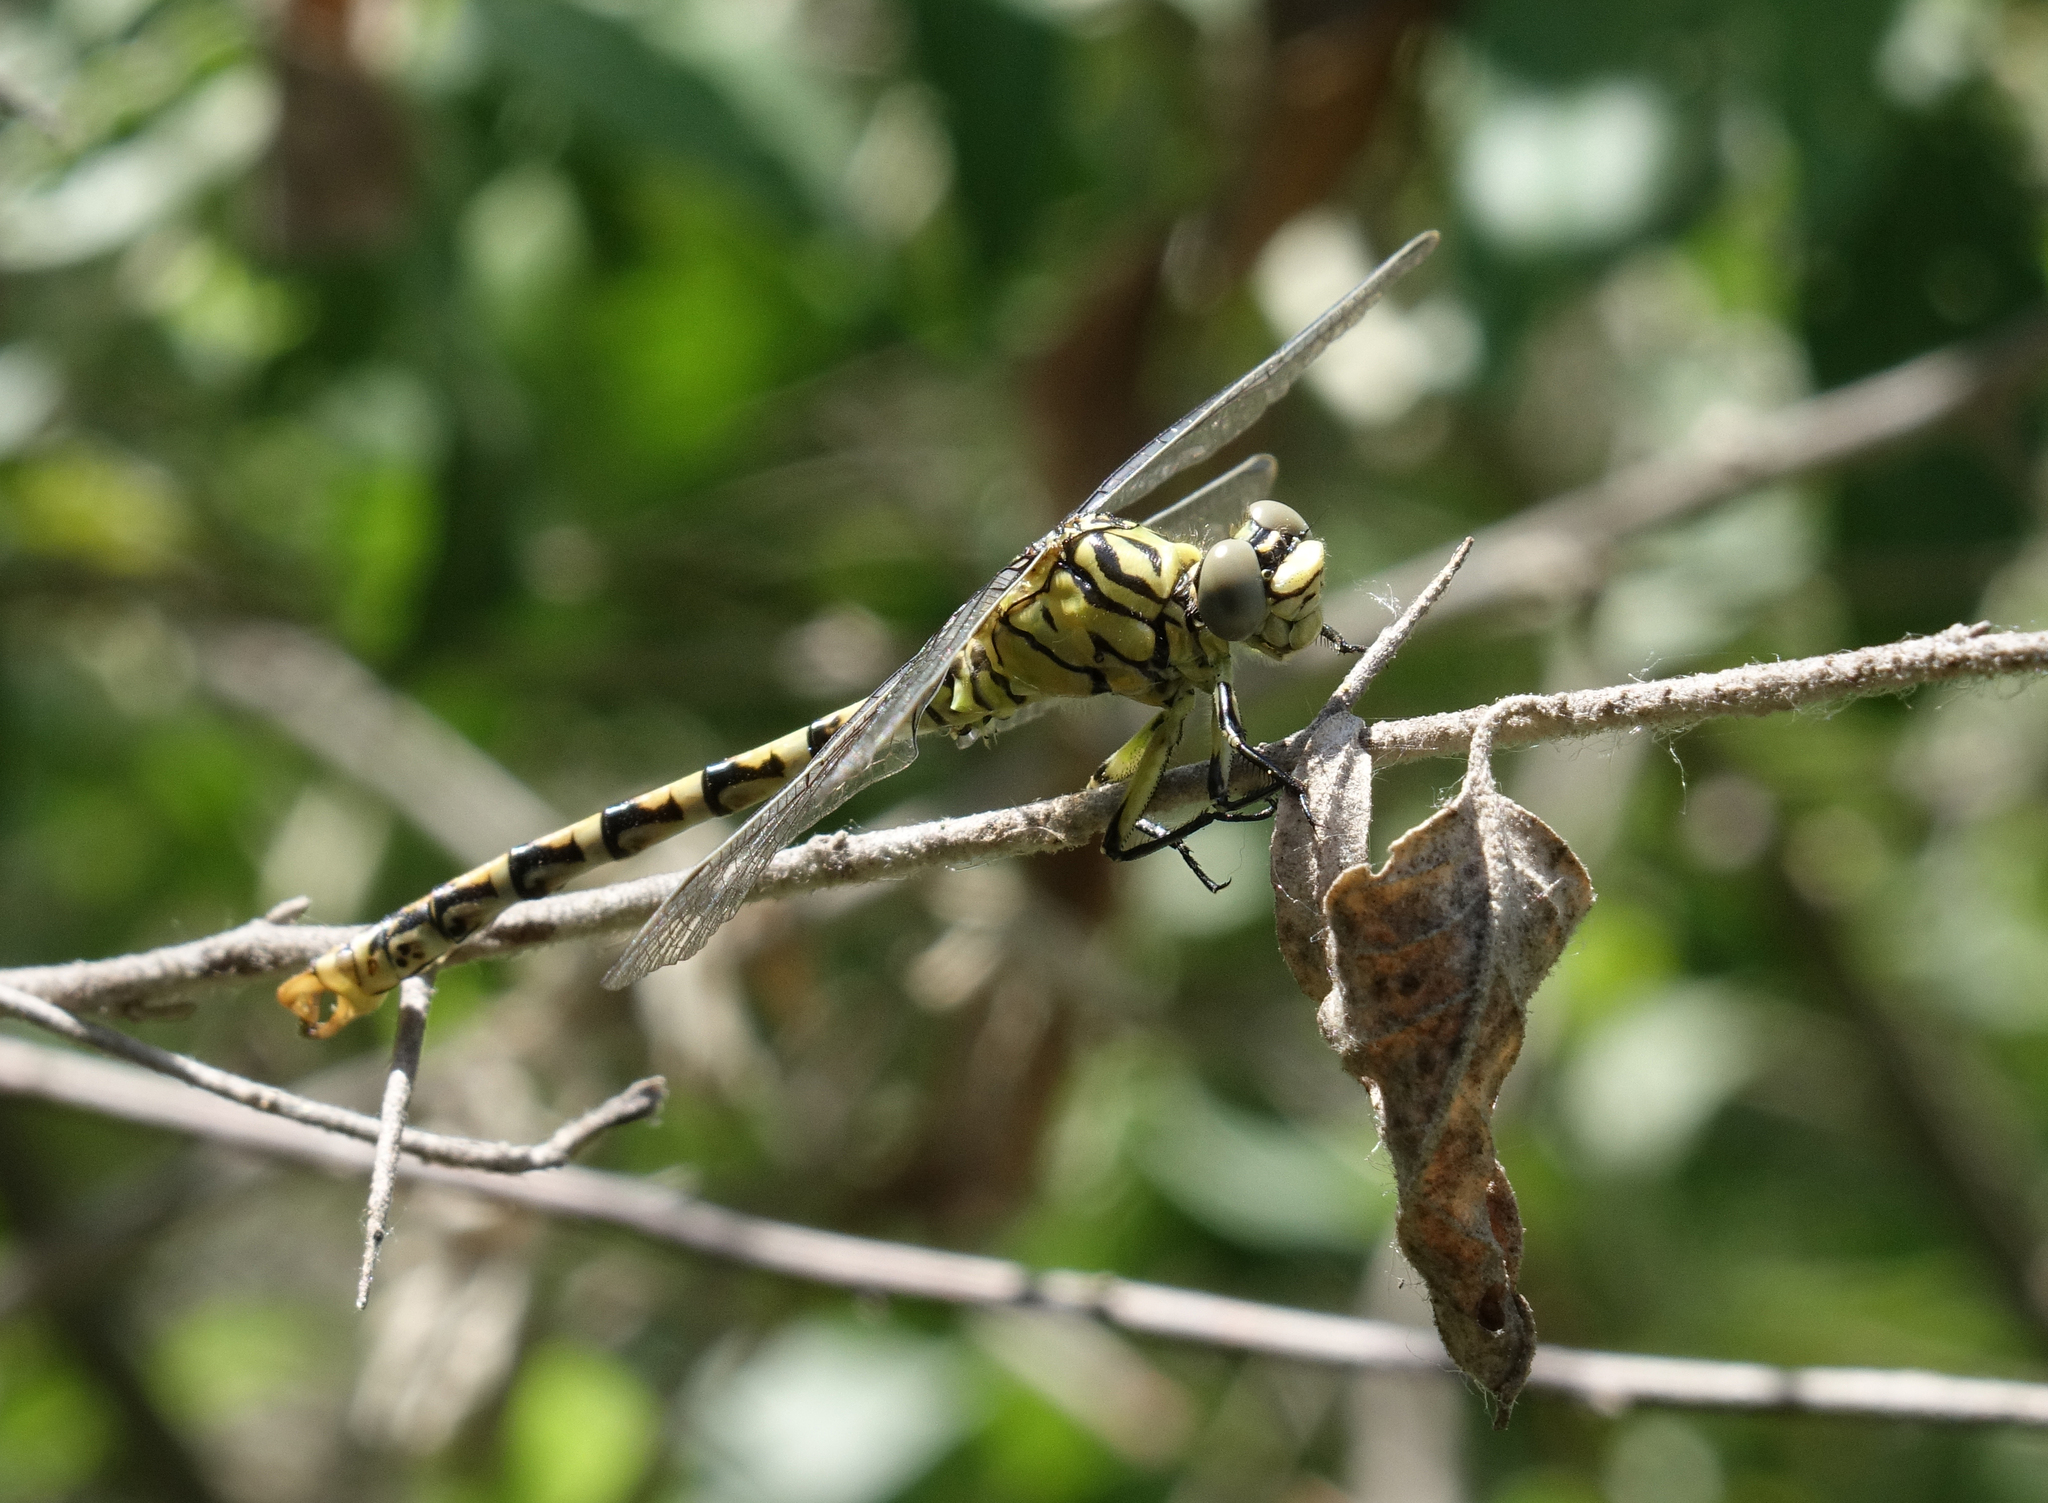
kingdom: Animalia
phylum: Arthropoda
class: Insecta
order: Odonata
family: Gomphidae
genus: Onychogomphus
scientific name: Onychogomphus forcipatus
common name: Small pincertail
